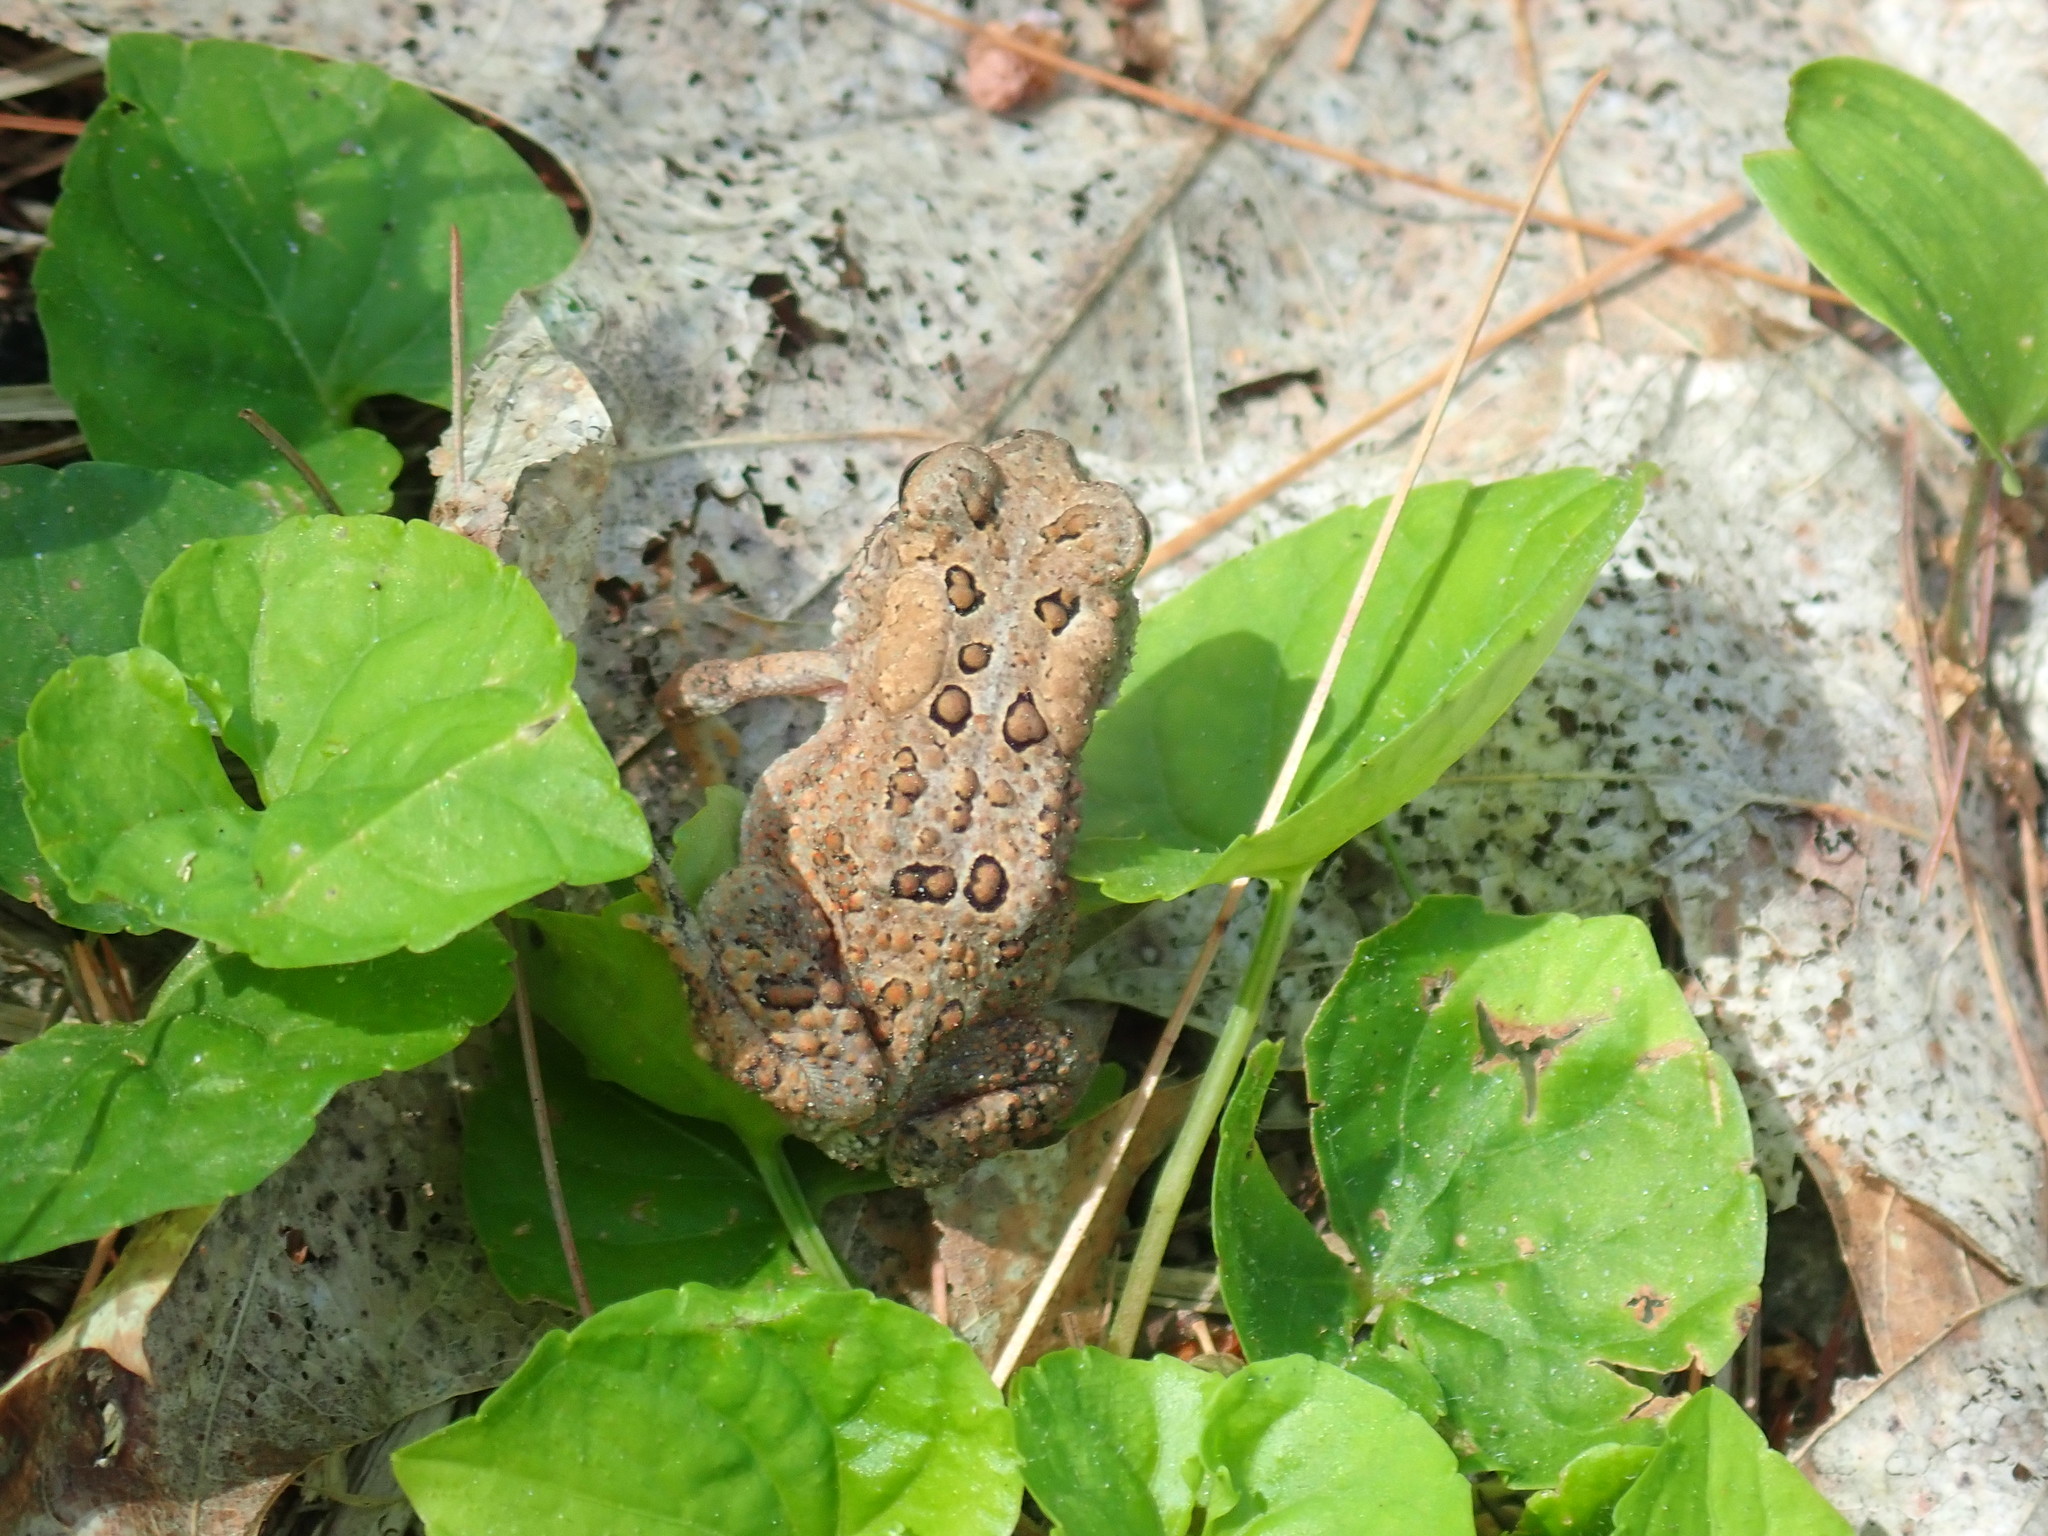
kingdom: Animalia
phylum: Chordata
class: Amphibia
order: Anura
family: Bufonidae
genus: Anaxyrus
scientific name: Anaxyrus americanus
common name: American toad
